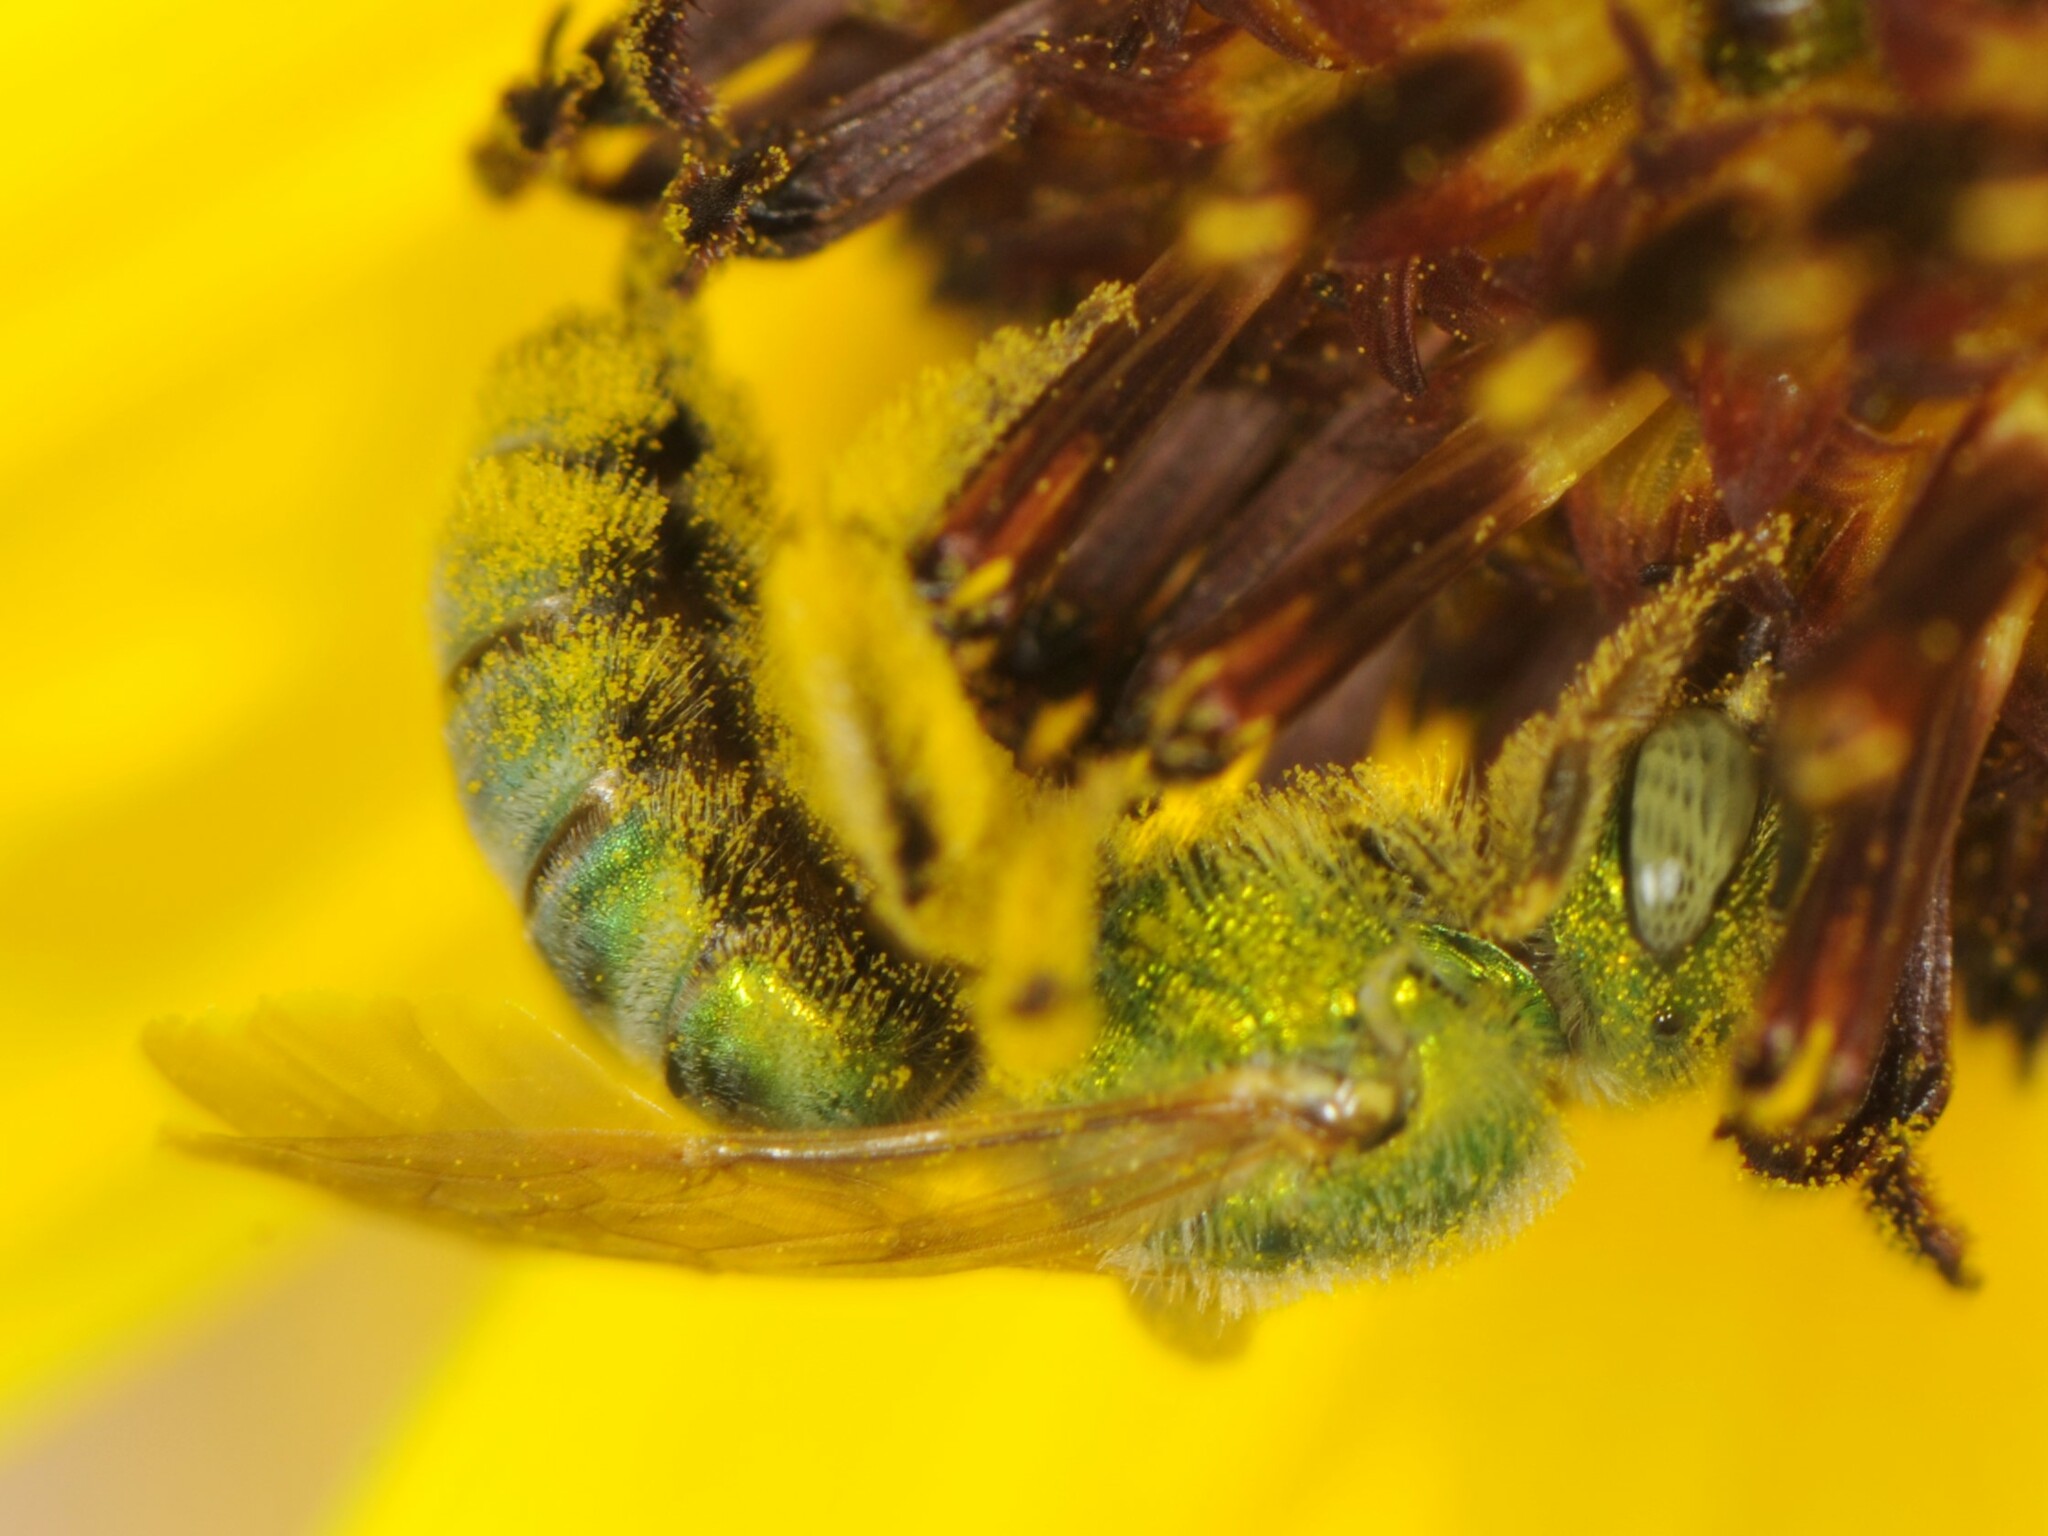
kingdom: Animalia
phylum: Arthropoda
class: Insecta
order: Hymenoptera
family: Halictidae
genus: Agapostemon
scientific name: Agapostemon
